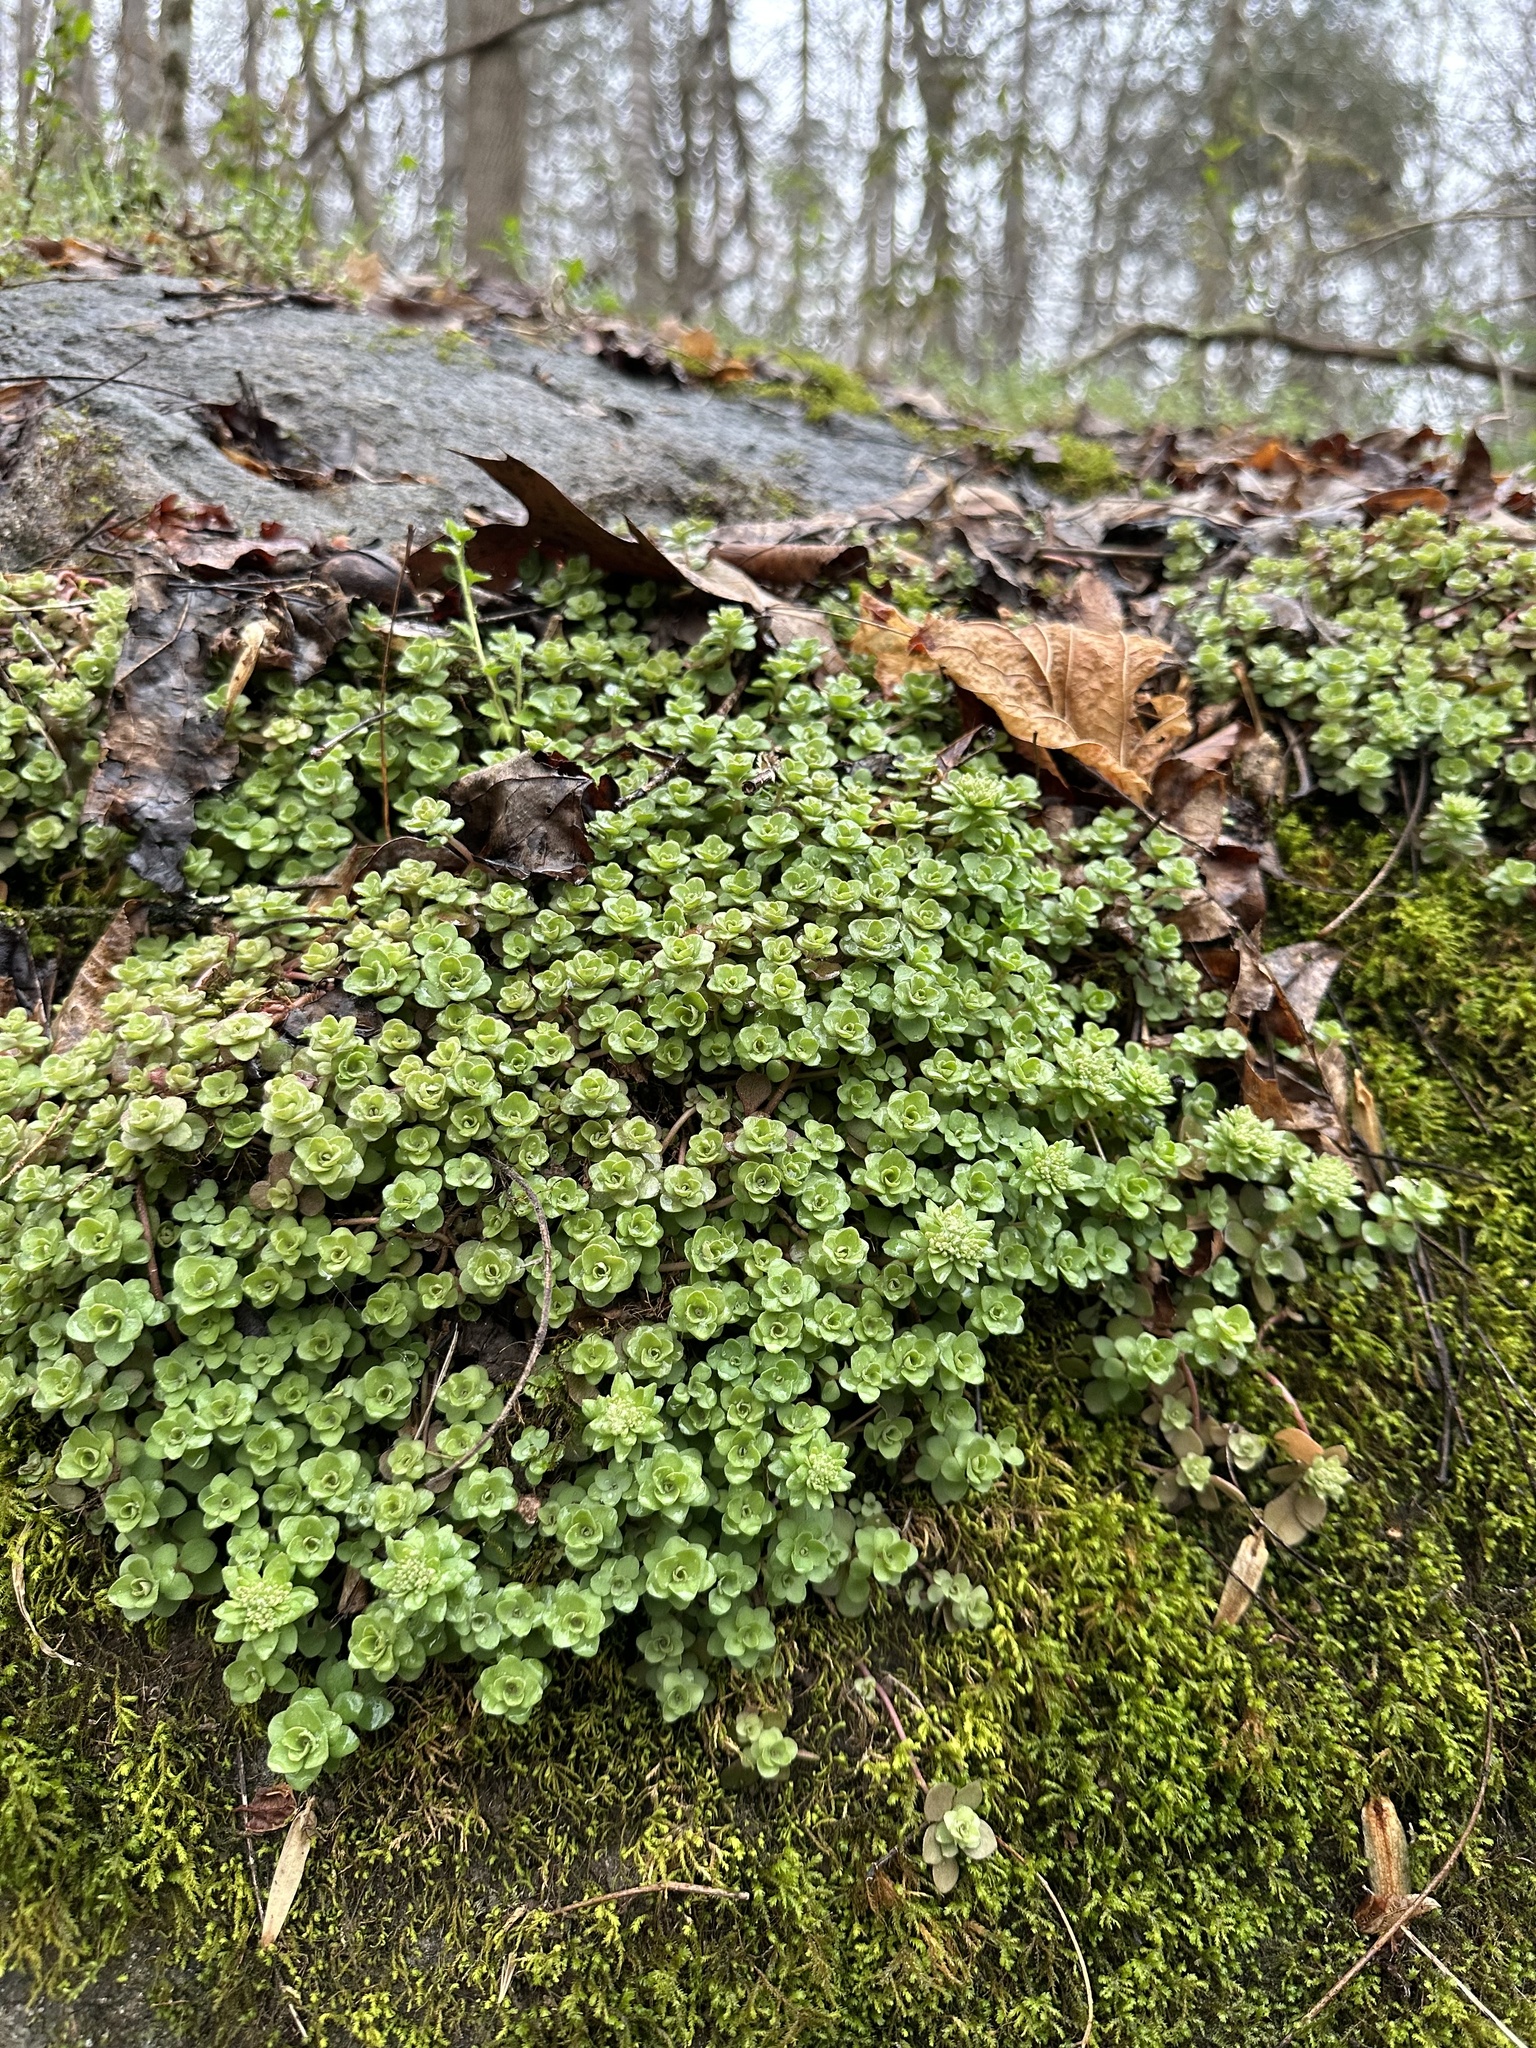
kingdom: Plantae
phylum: Tracheophyta
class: Magnoliopsida
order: Saxifragales
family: Crassulaceae
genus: Sedum
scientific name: Sedum ternatum
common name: Wild stonecrop
